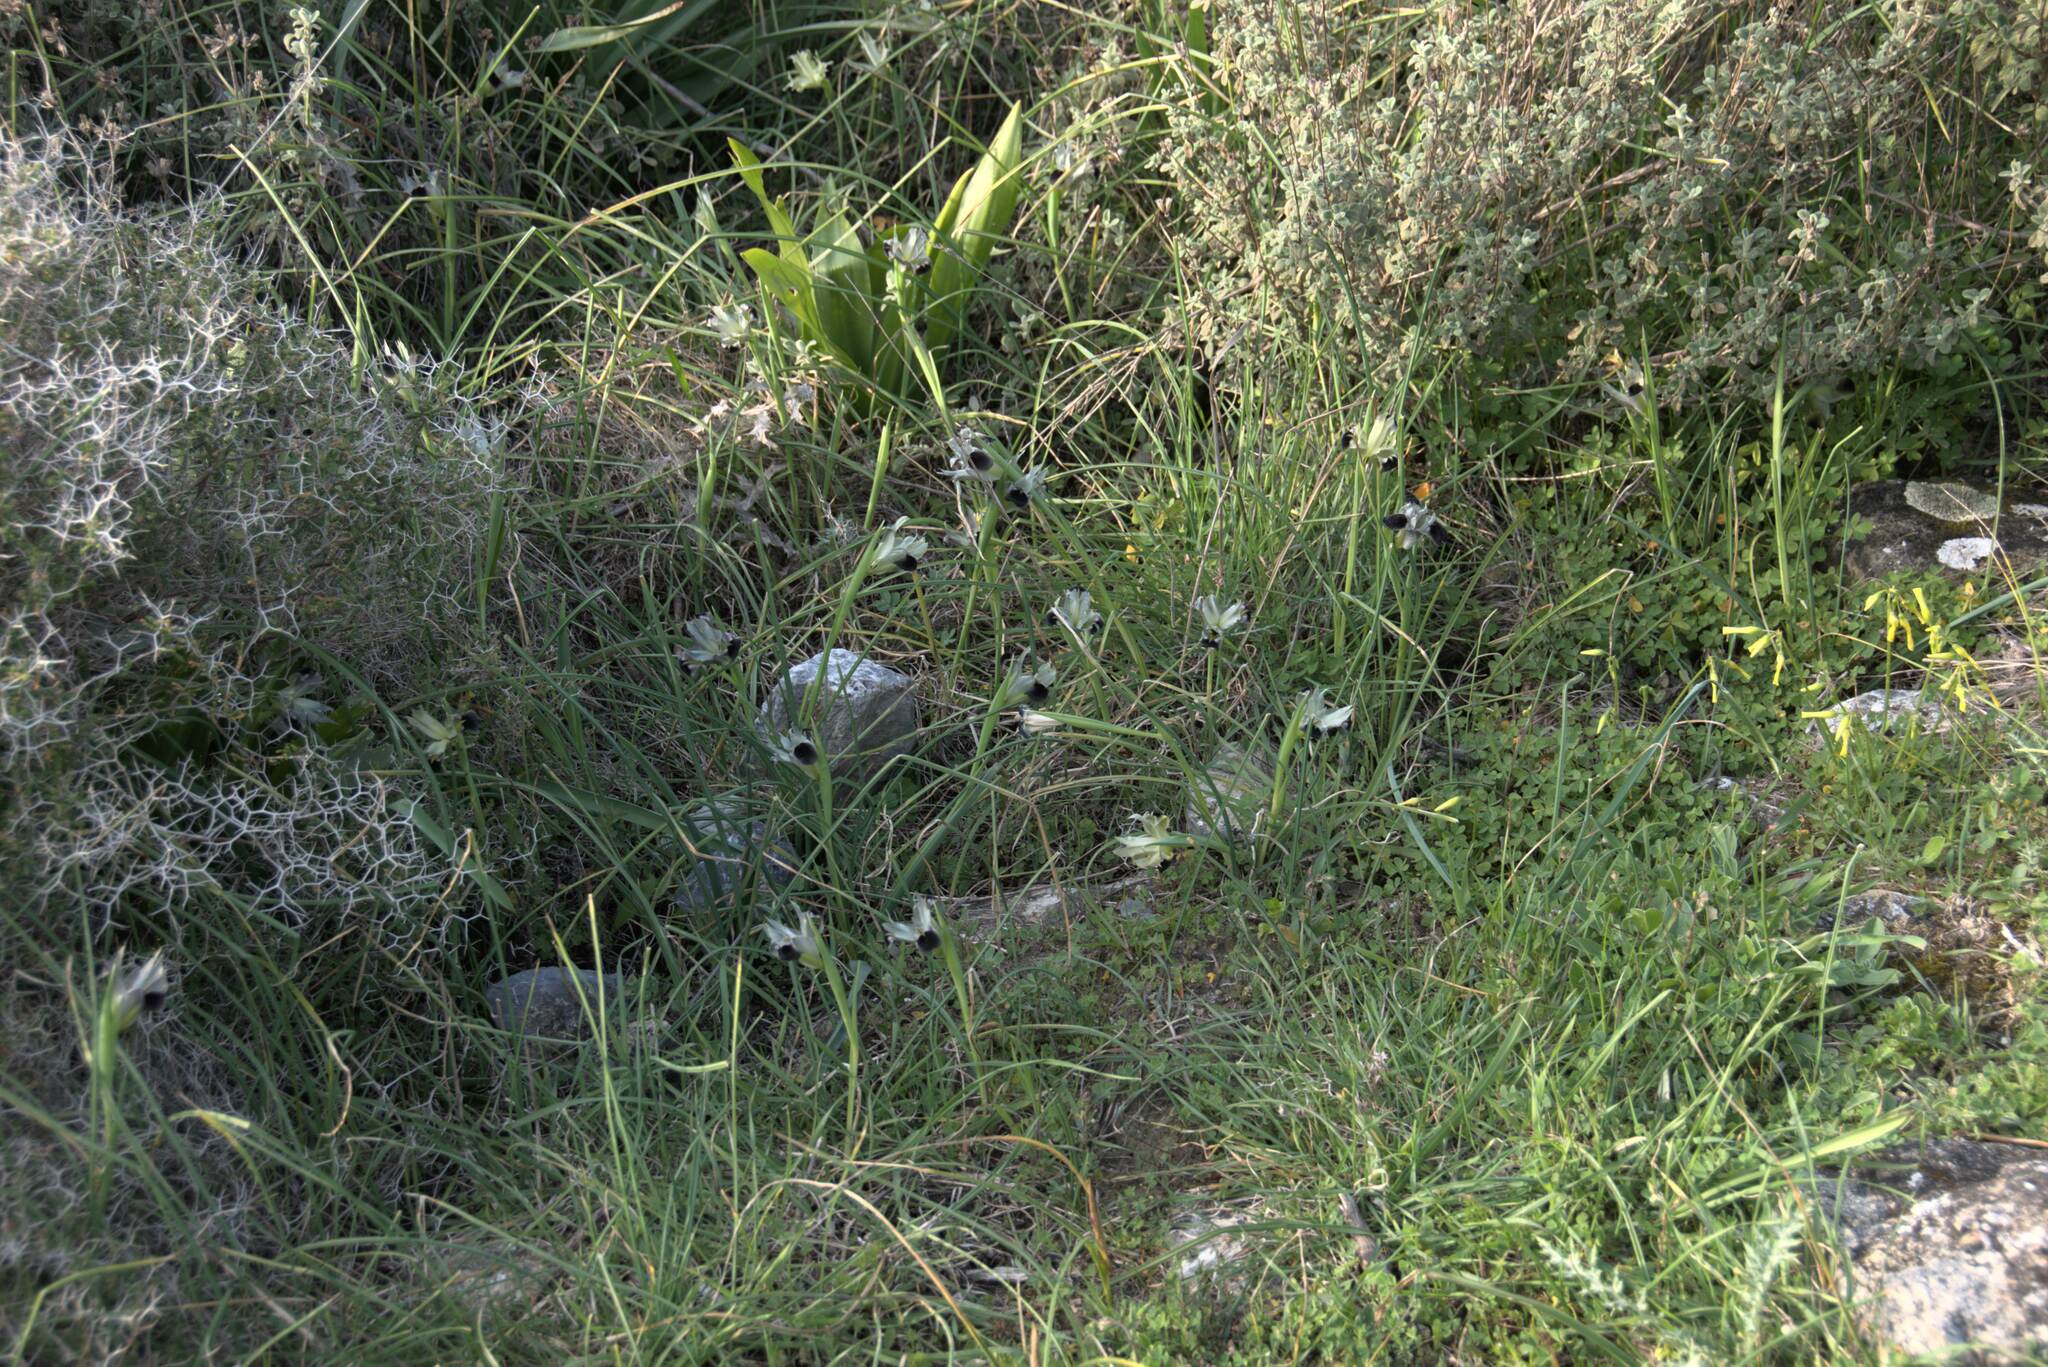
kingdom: Plantae
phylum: Tracheophyta
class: Liliopsida
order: Asparagales
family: Iridaceae
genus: Iris
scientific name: Iris tuberosa
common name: Snake's-head iris
